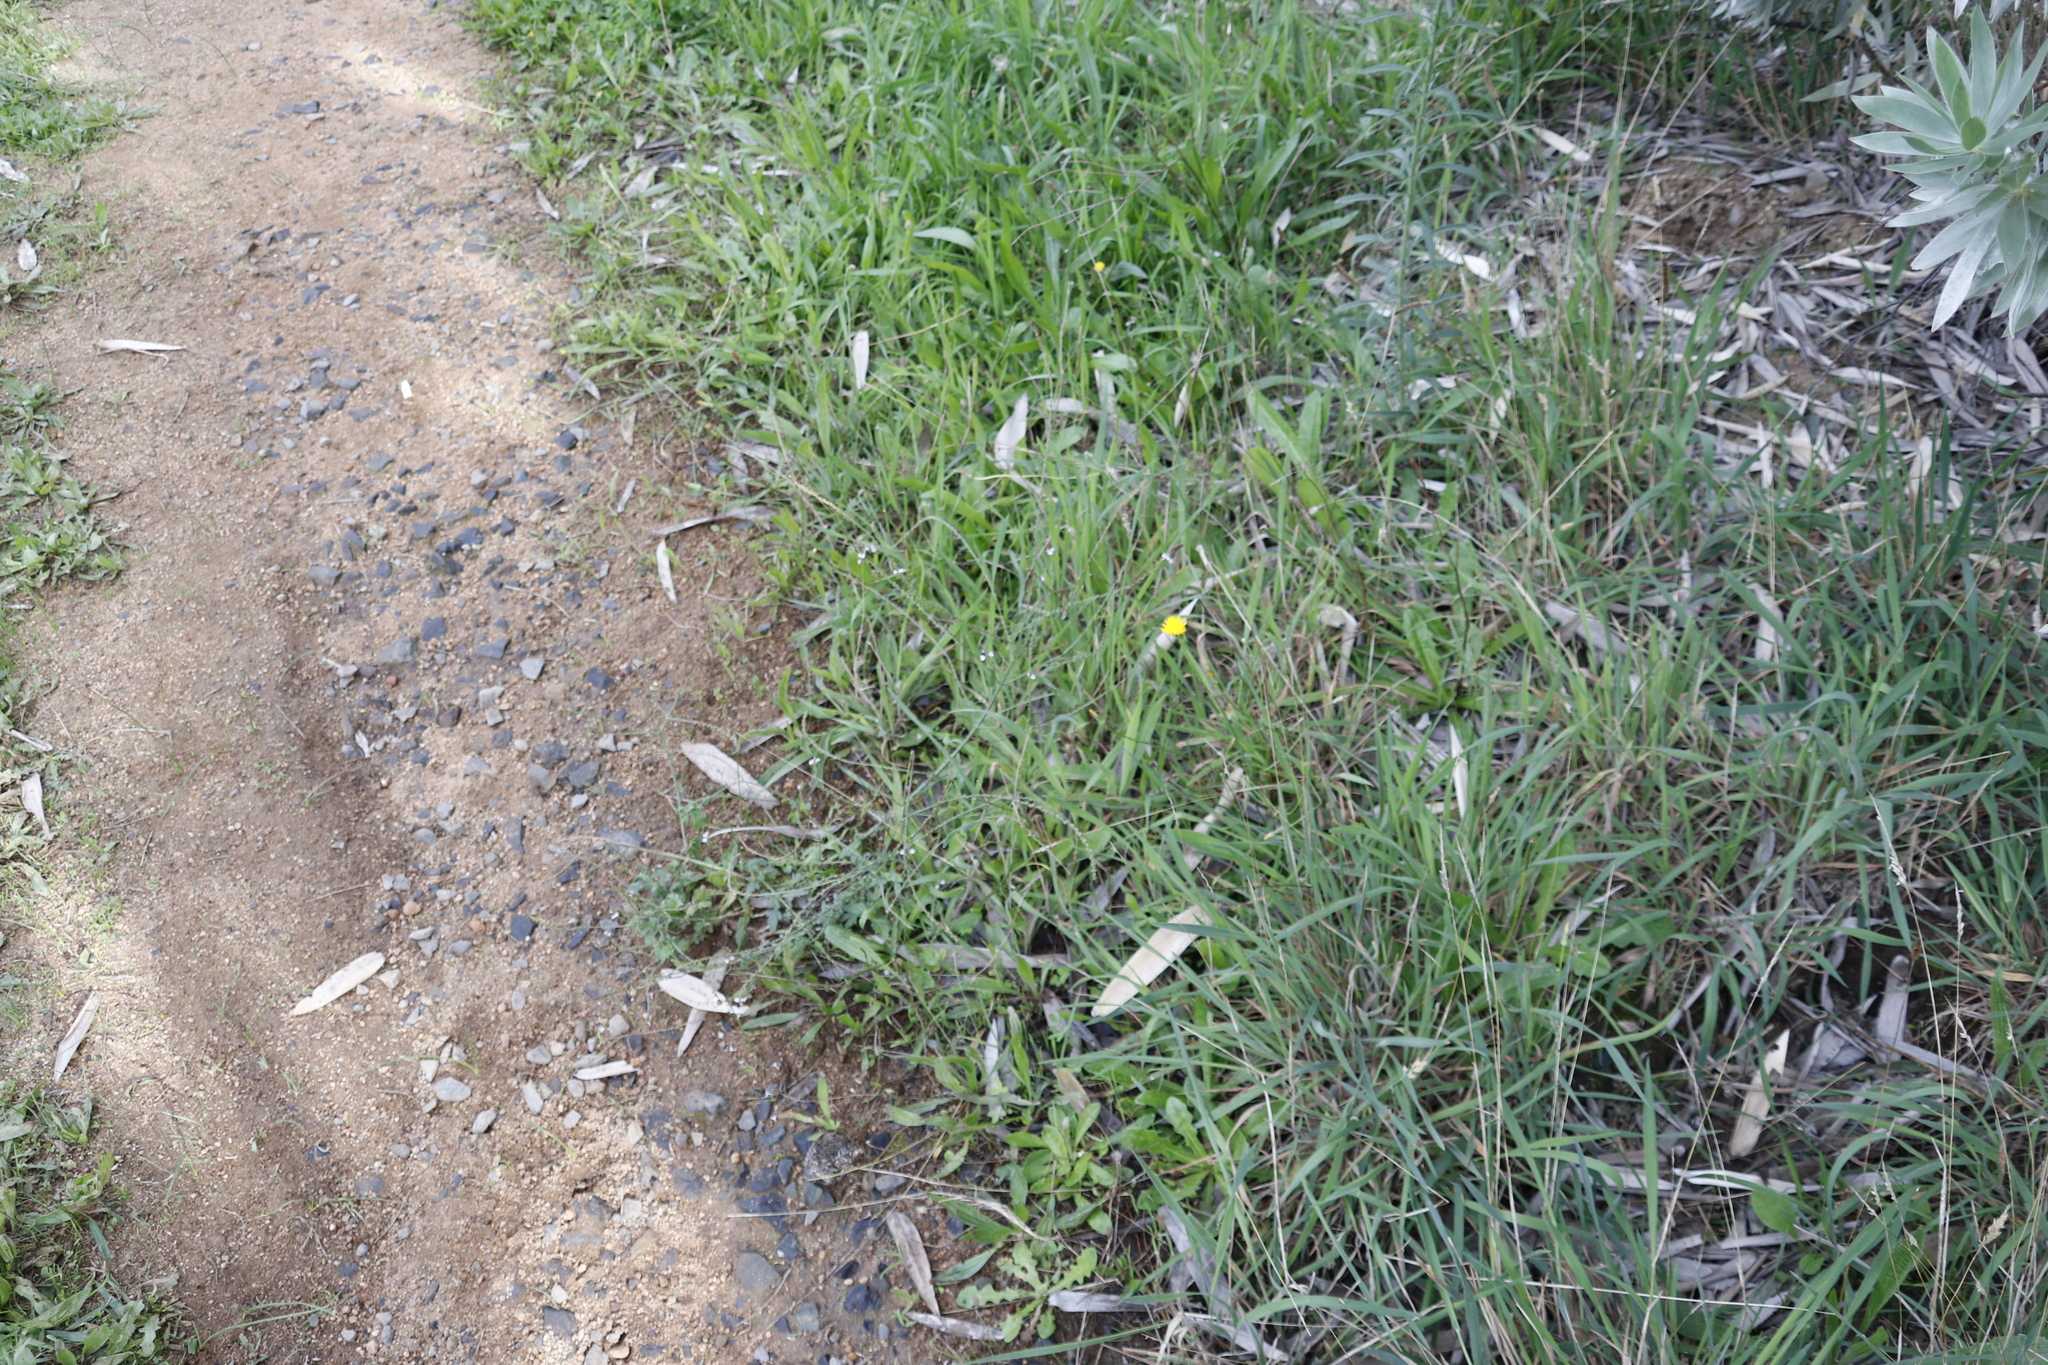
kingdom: Plantae
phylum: Tracheophyta
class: Magnoliopsida
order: Lamiales
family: Verbenaceae
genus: Verbena
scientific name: Verbena officinalis
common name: Vervain
